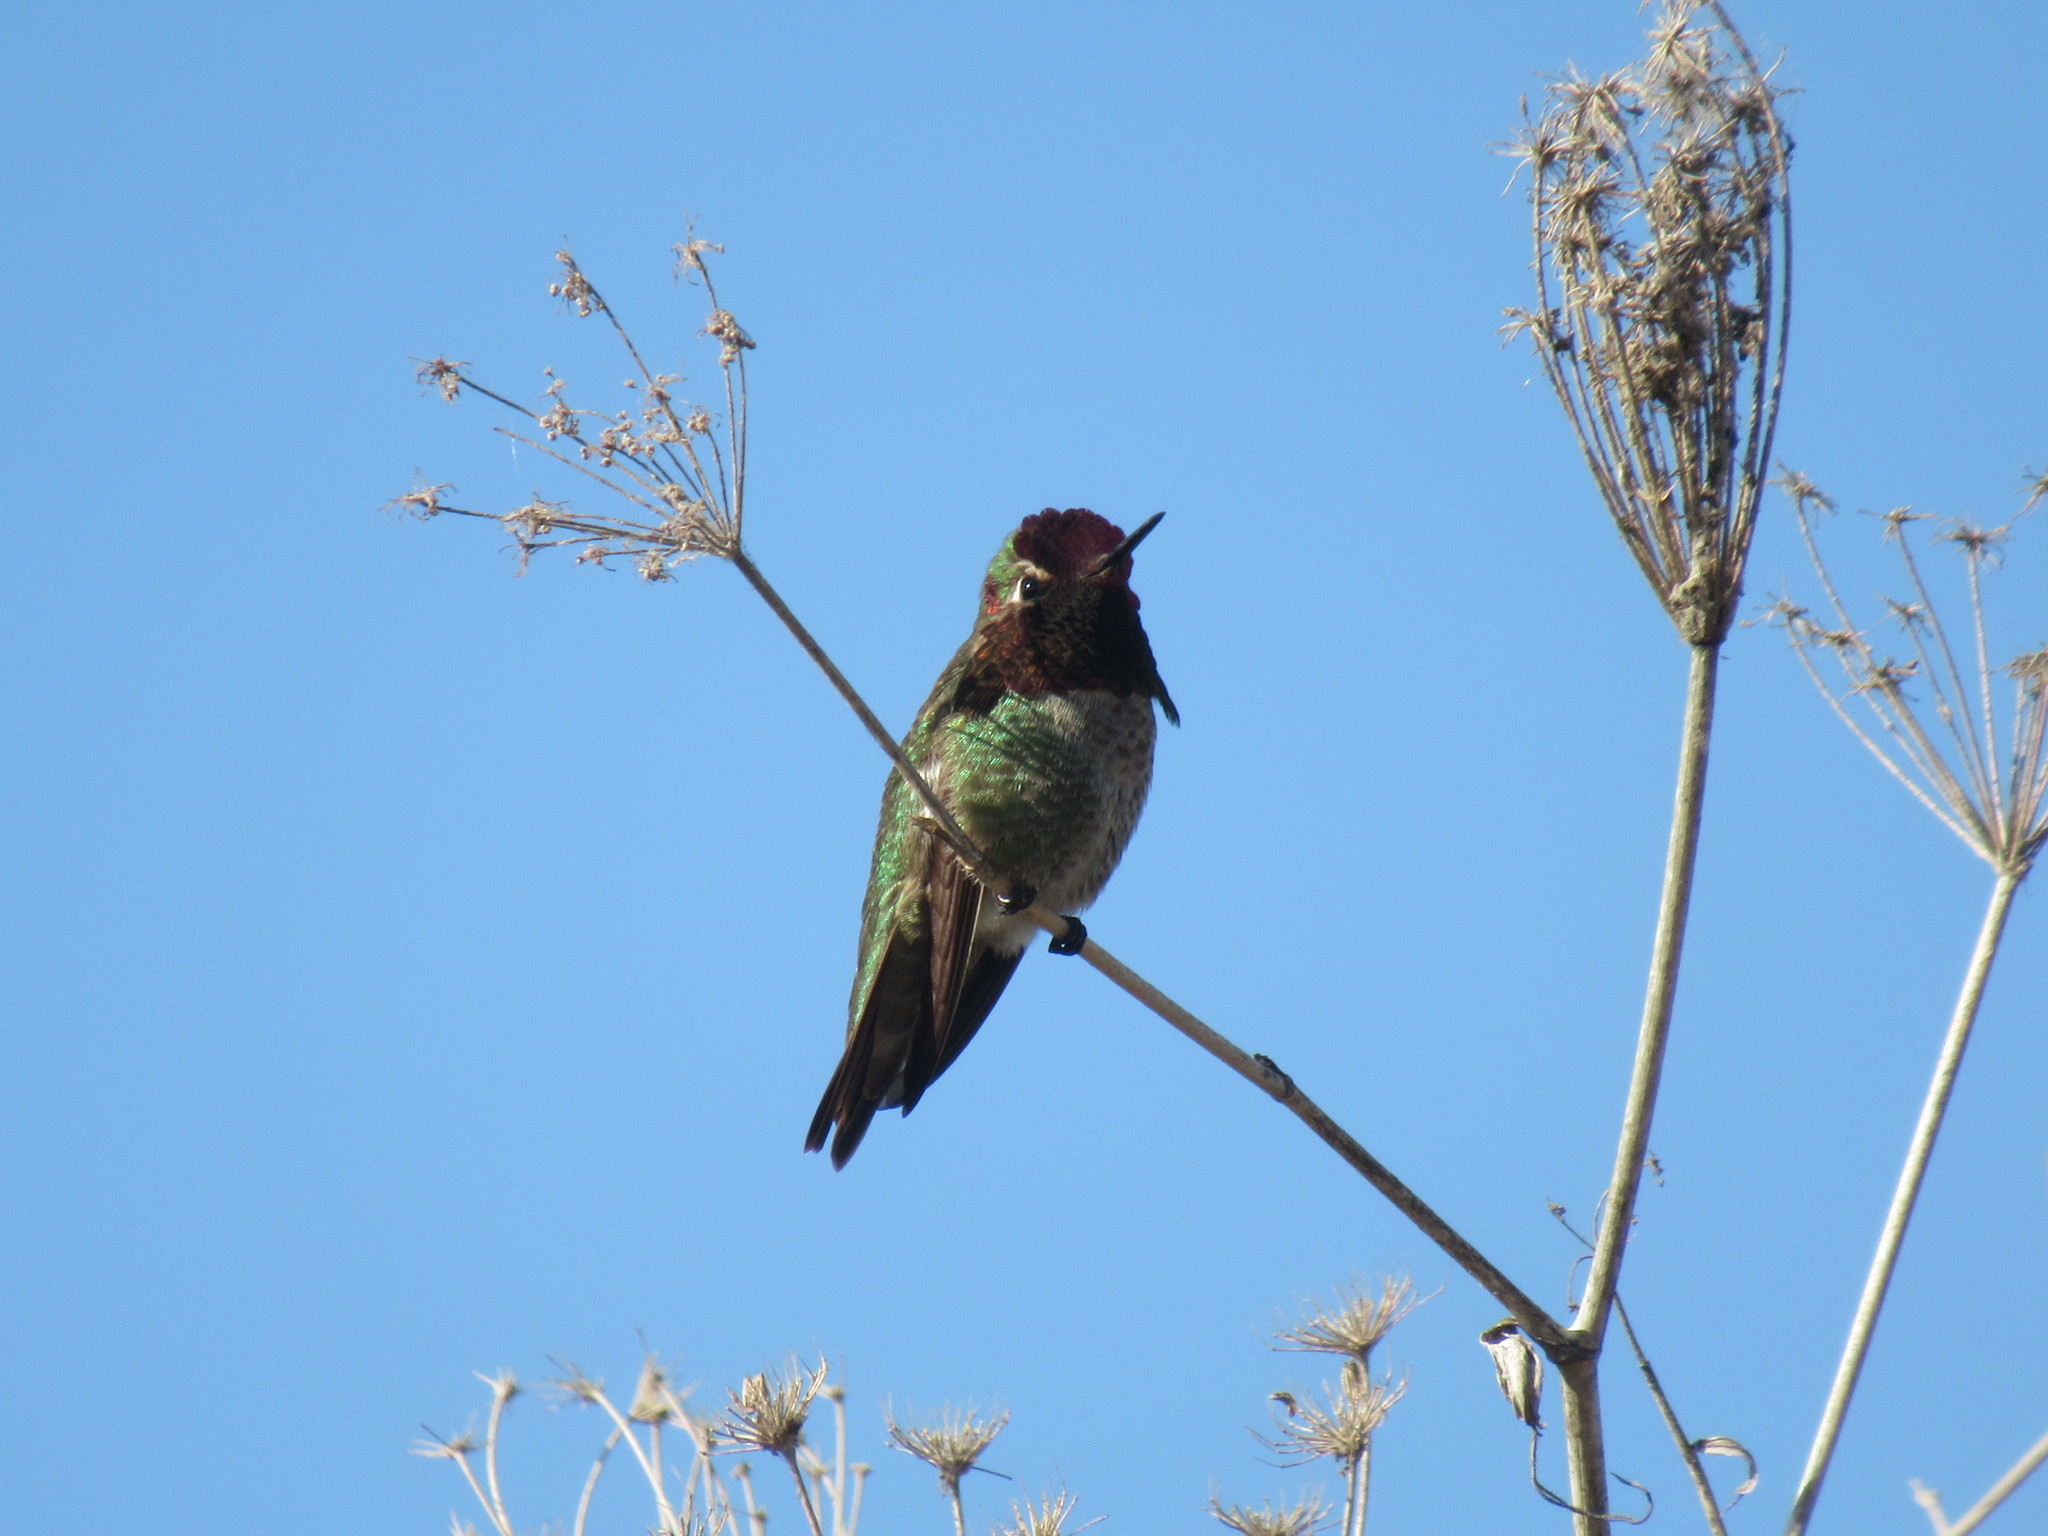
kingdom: Animalia
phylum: Chordata
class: Aves
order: Apodiformes
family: Trochilidae
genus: Calypte
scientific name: Calypte anna
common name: Anna's hummingbird
